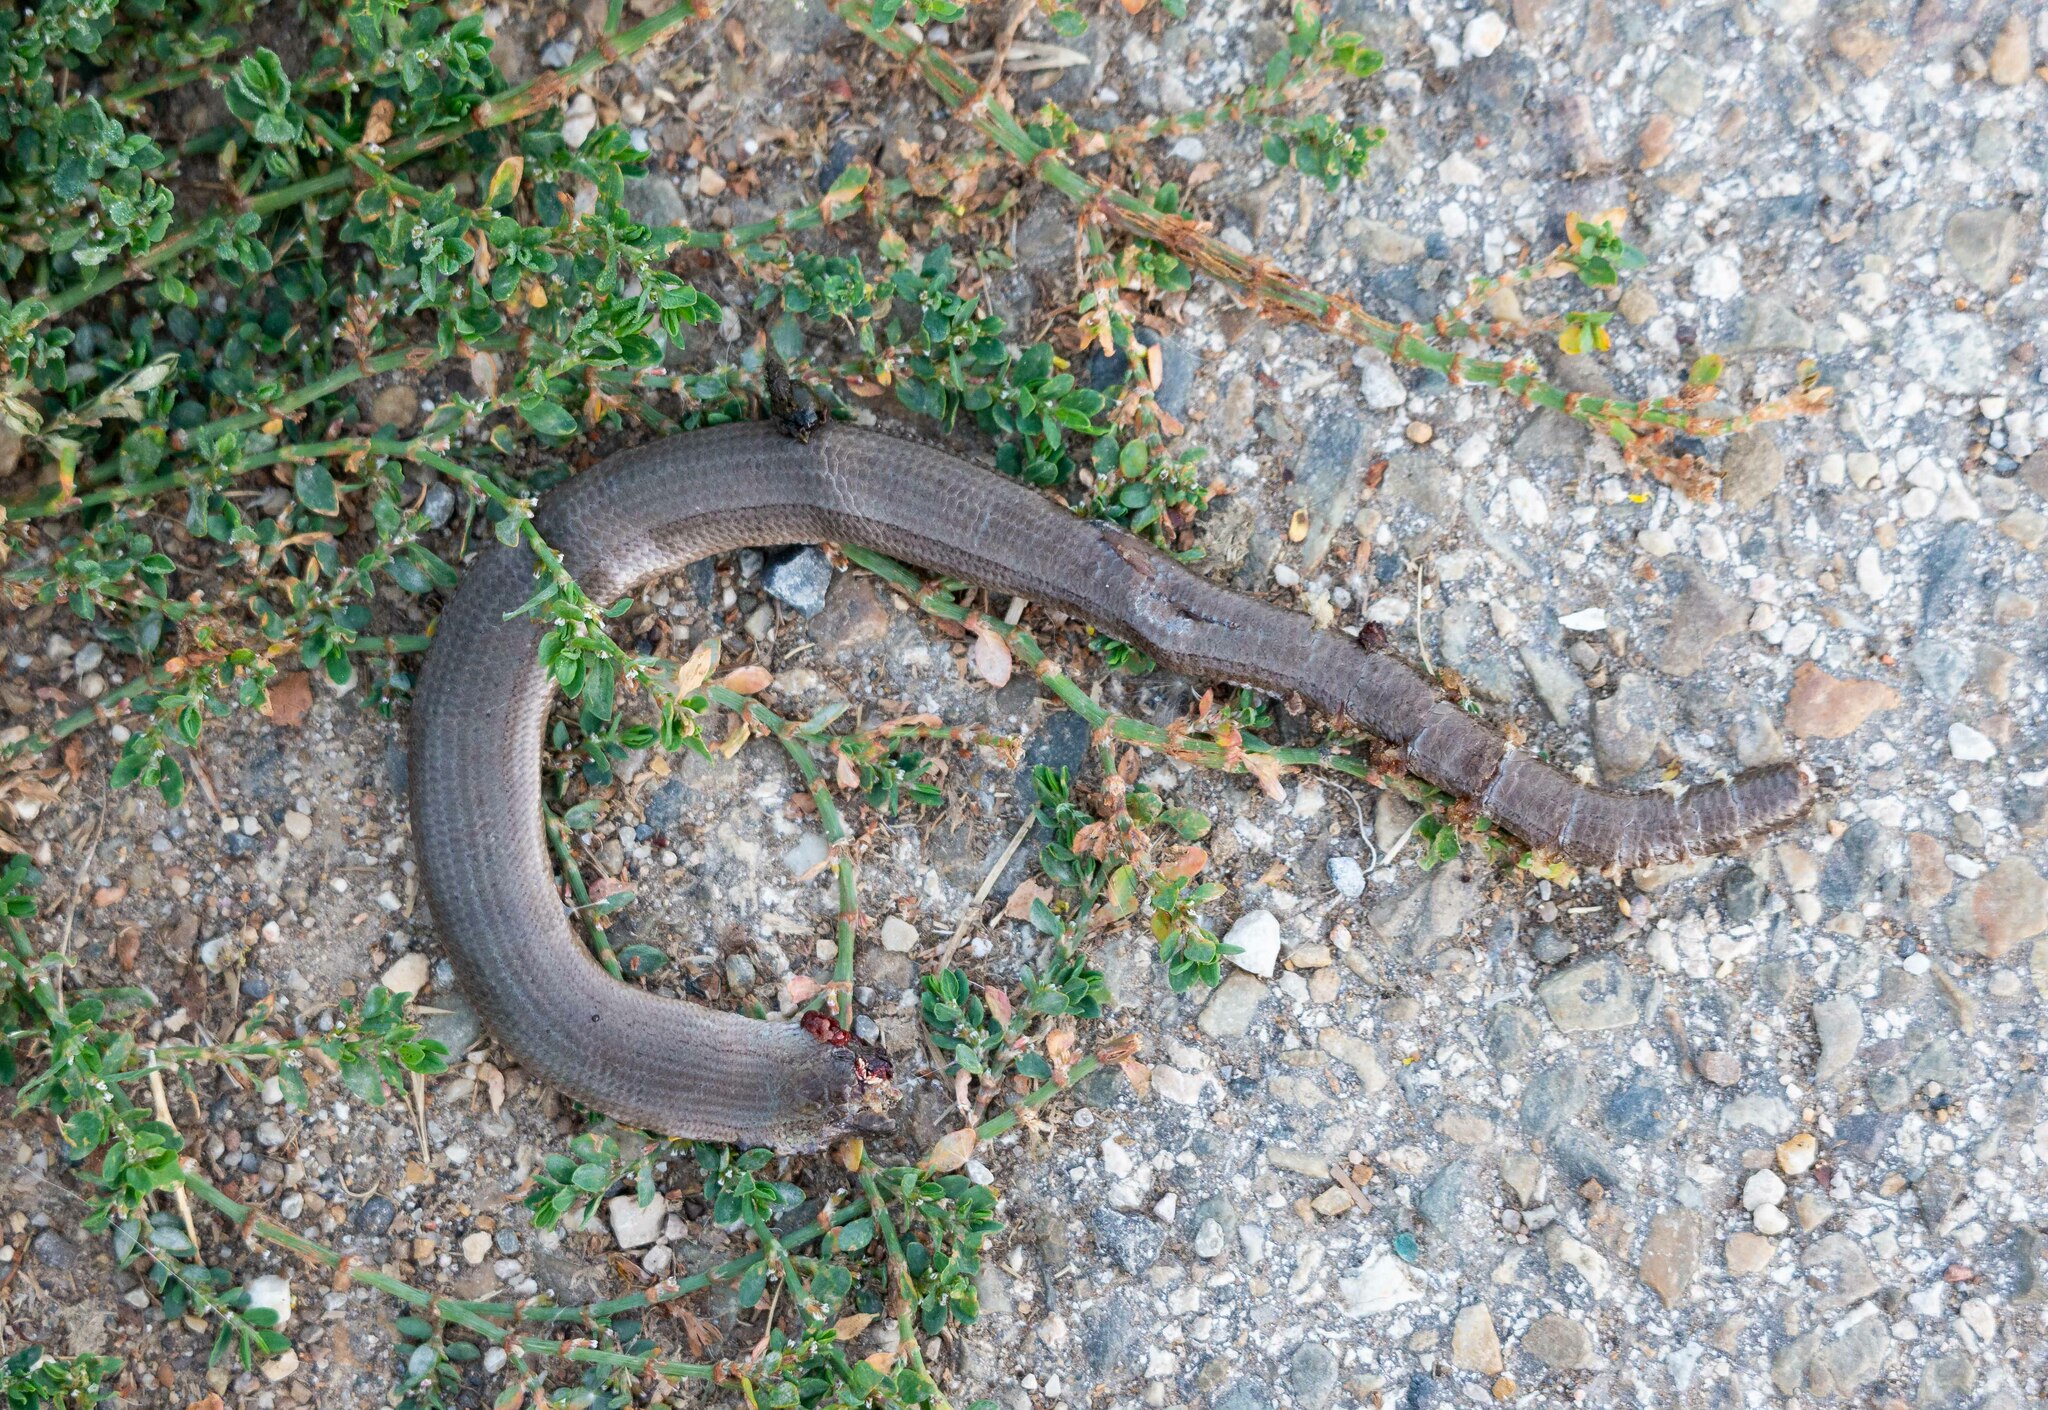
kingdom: Animalia
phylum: Chordata
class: Squamata
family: Anguidae
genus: Anguis
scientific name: Anguis fragilis
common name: Slow worm
